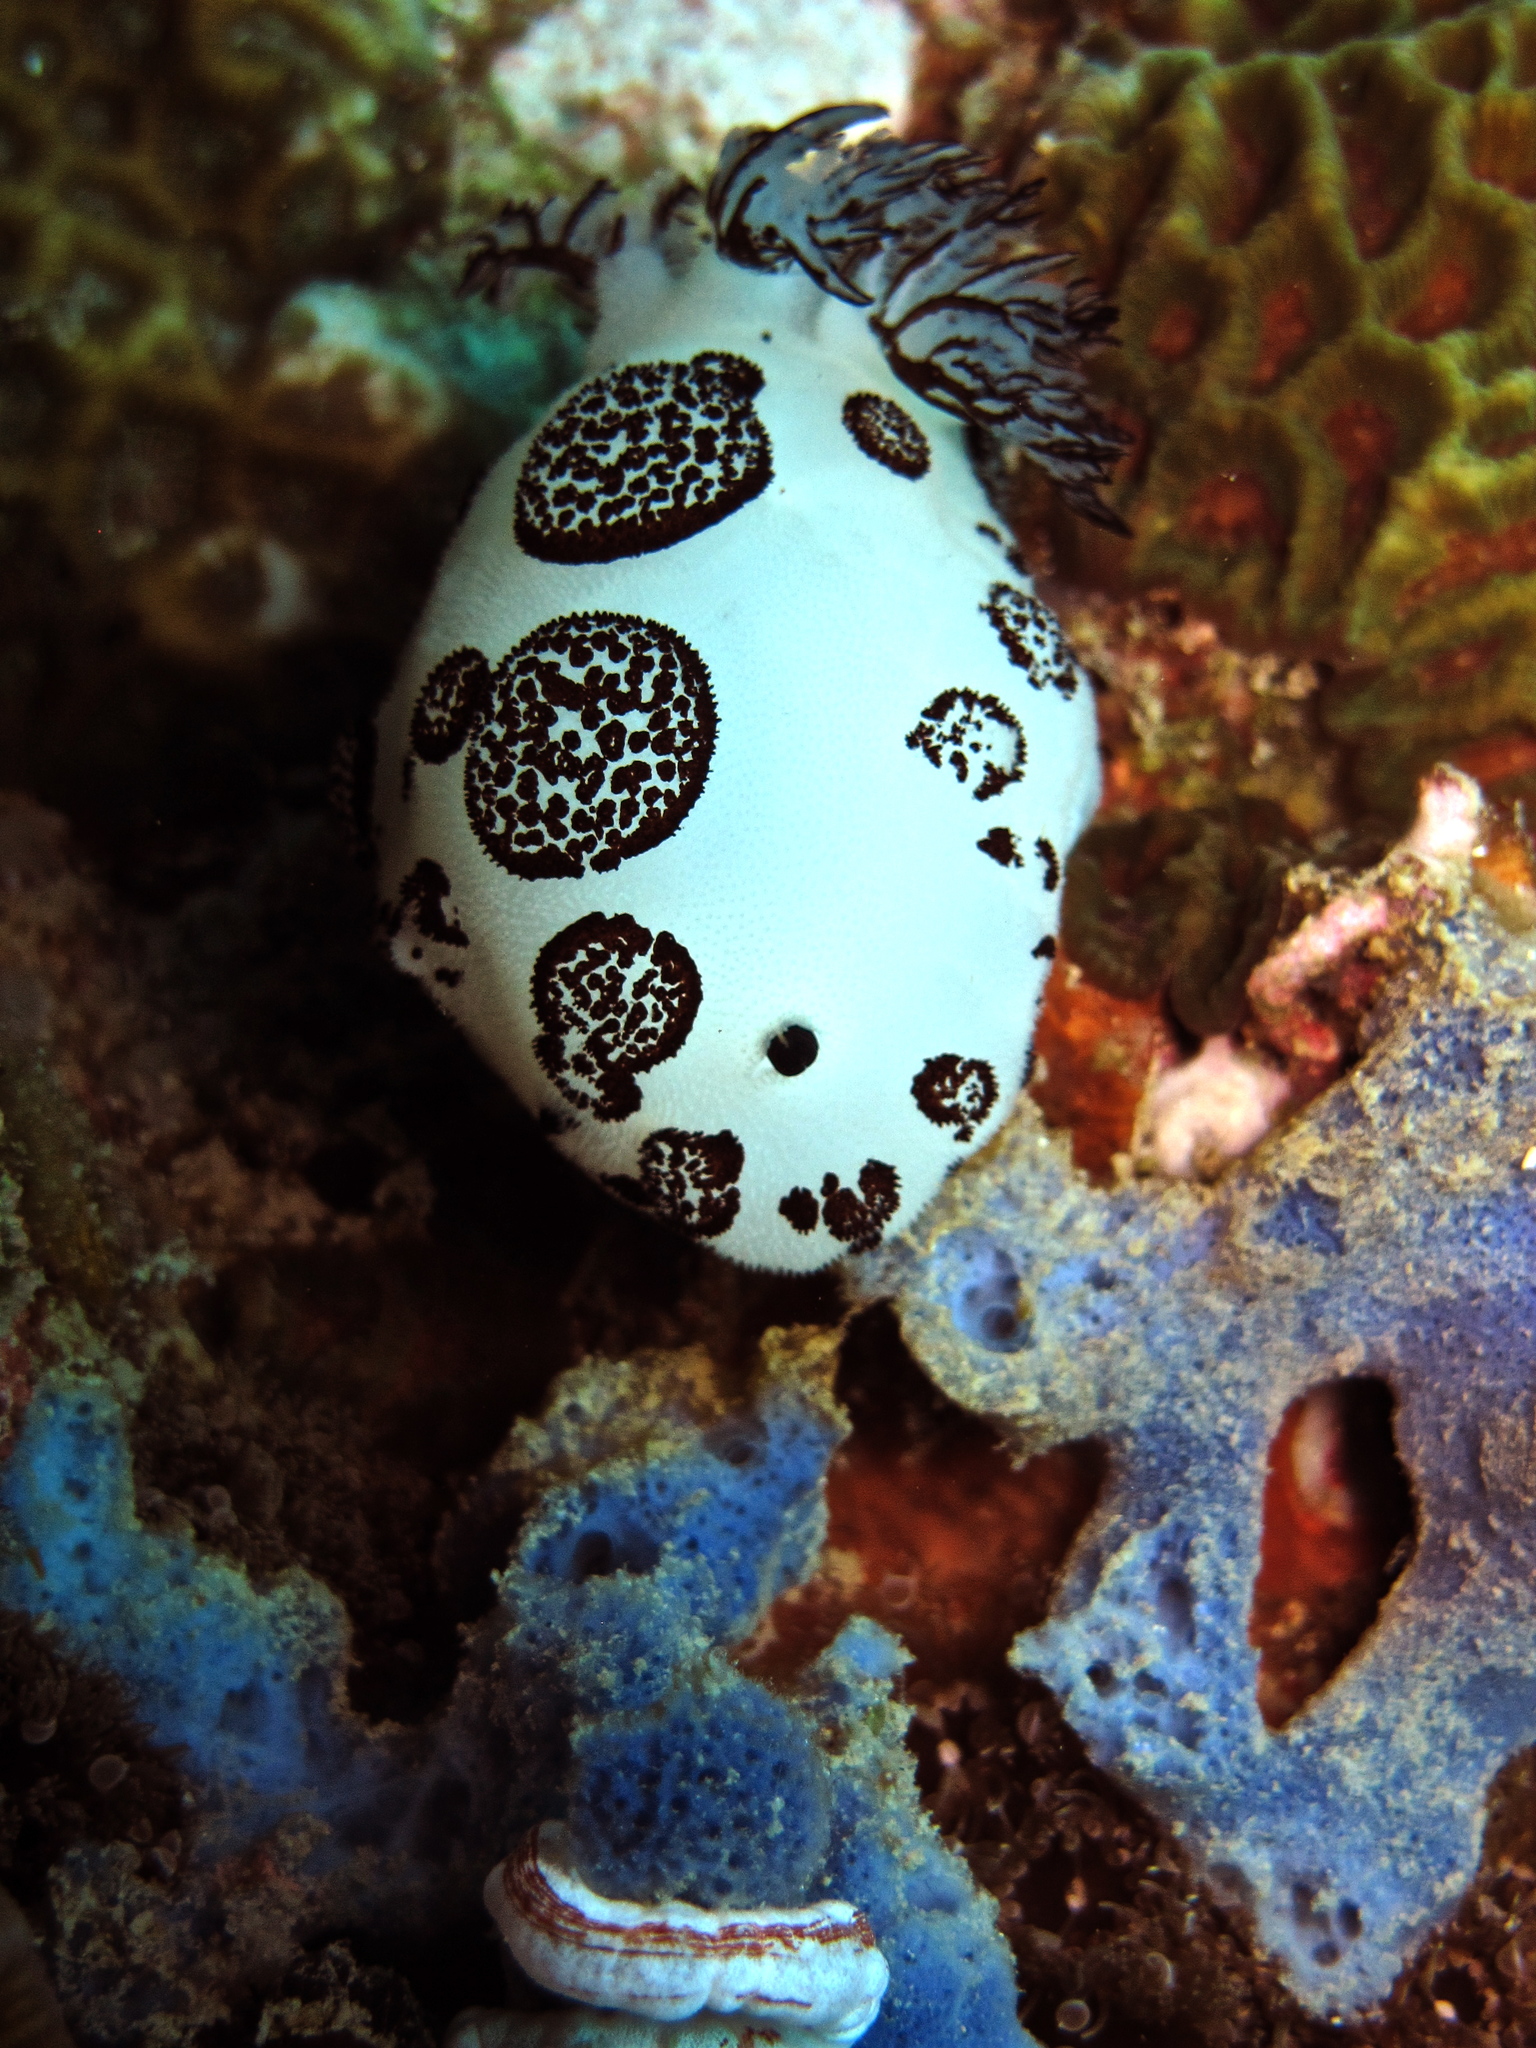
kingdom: Animalia
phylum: Mollusca
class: Gastropoda
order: Nudibranchia
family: Discodorididae
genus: Jorunna
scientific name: Jorunna funebris
